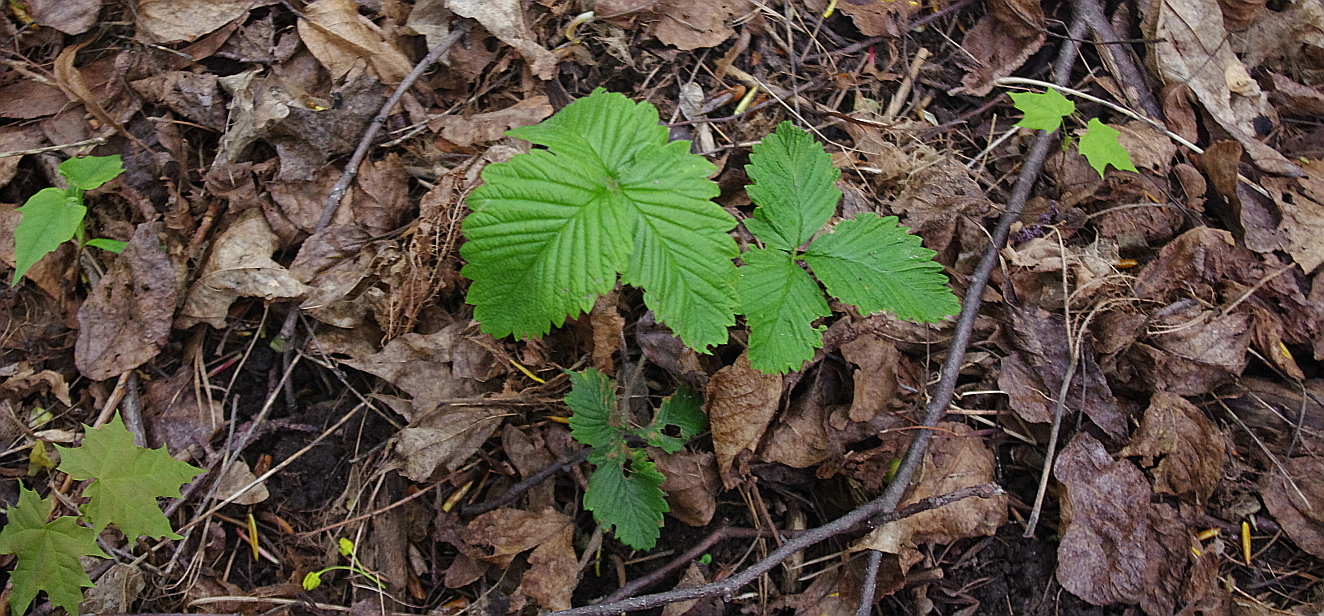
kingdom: Plantae
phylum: Tracheophyta
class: Magnoliopsida
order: Rosales
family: Rosaceae
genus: Fragaria
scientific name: Fragaria moschata
